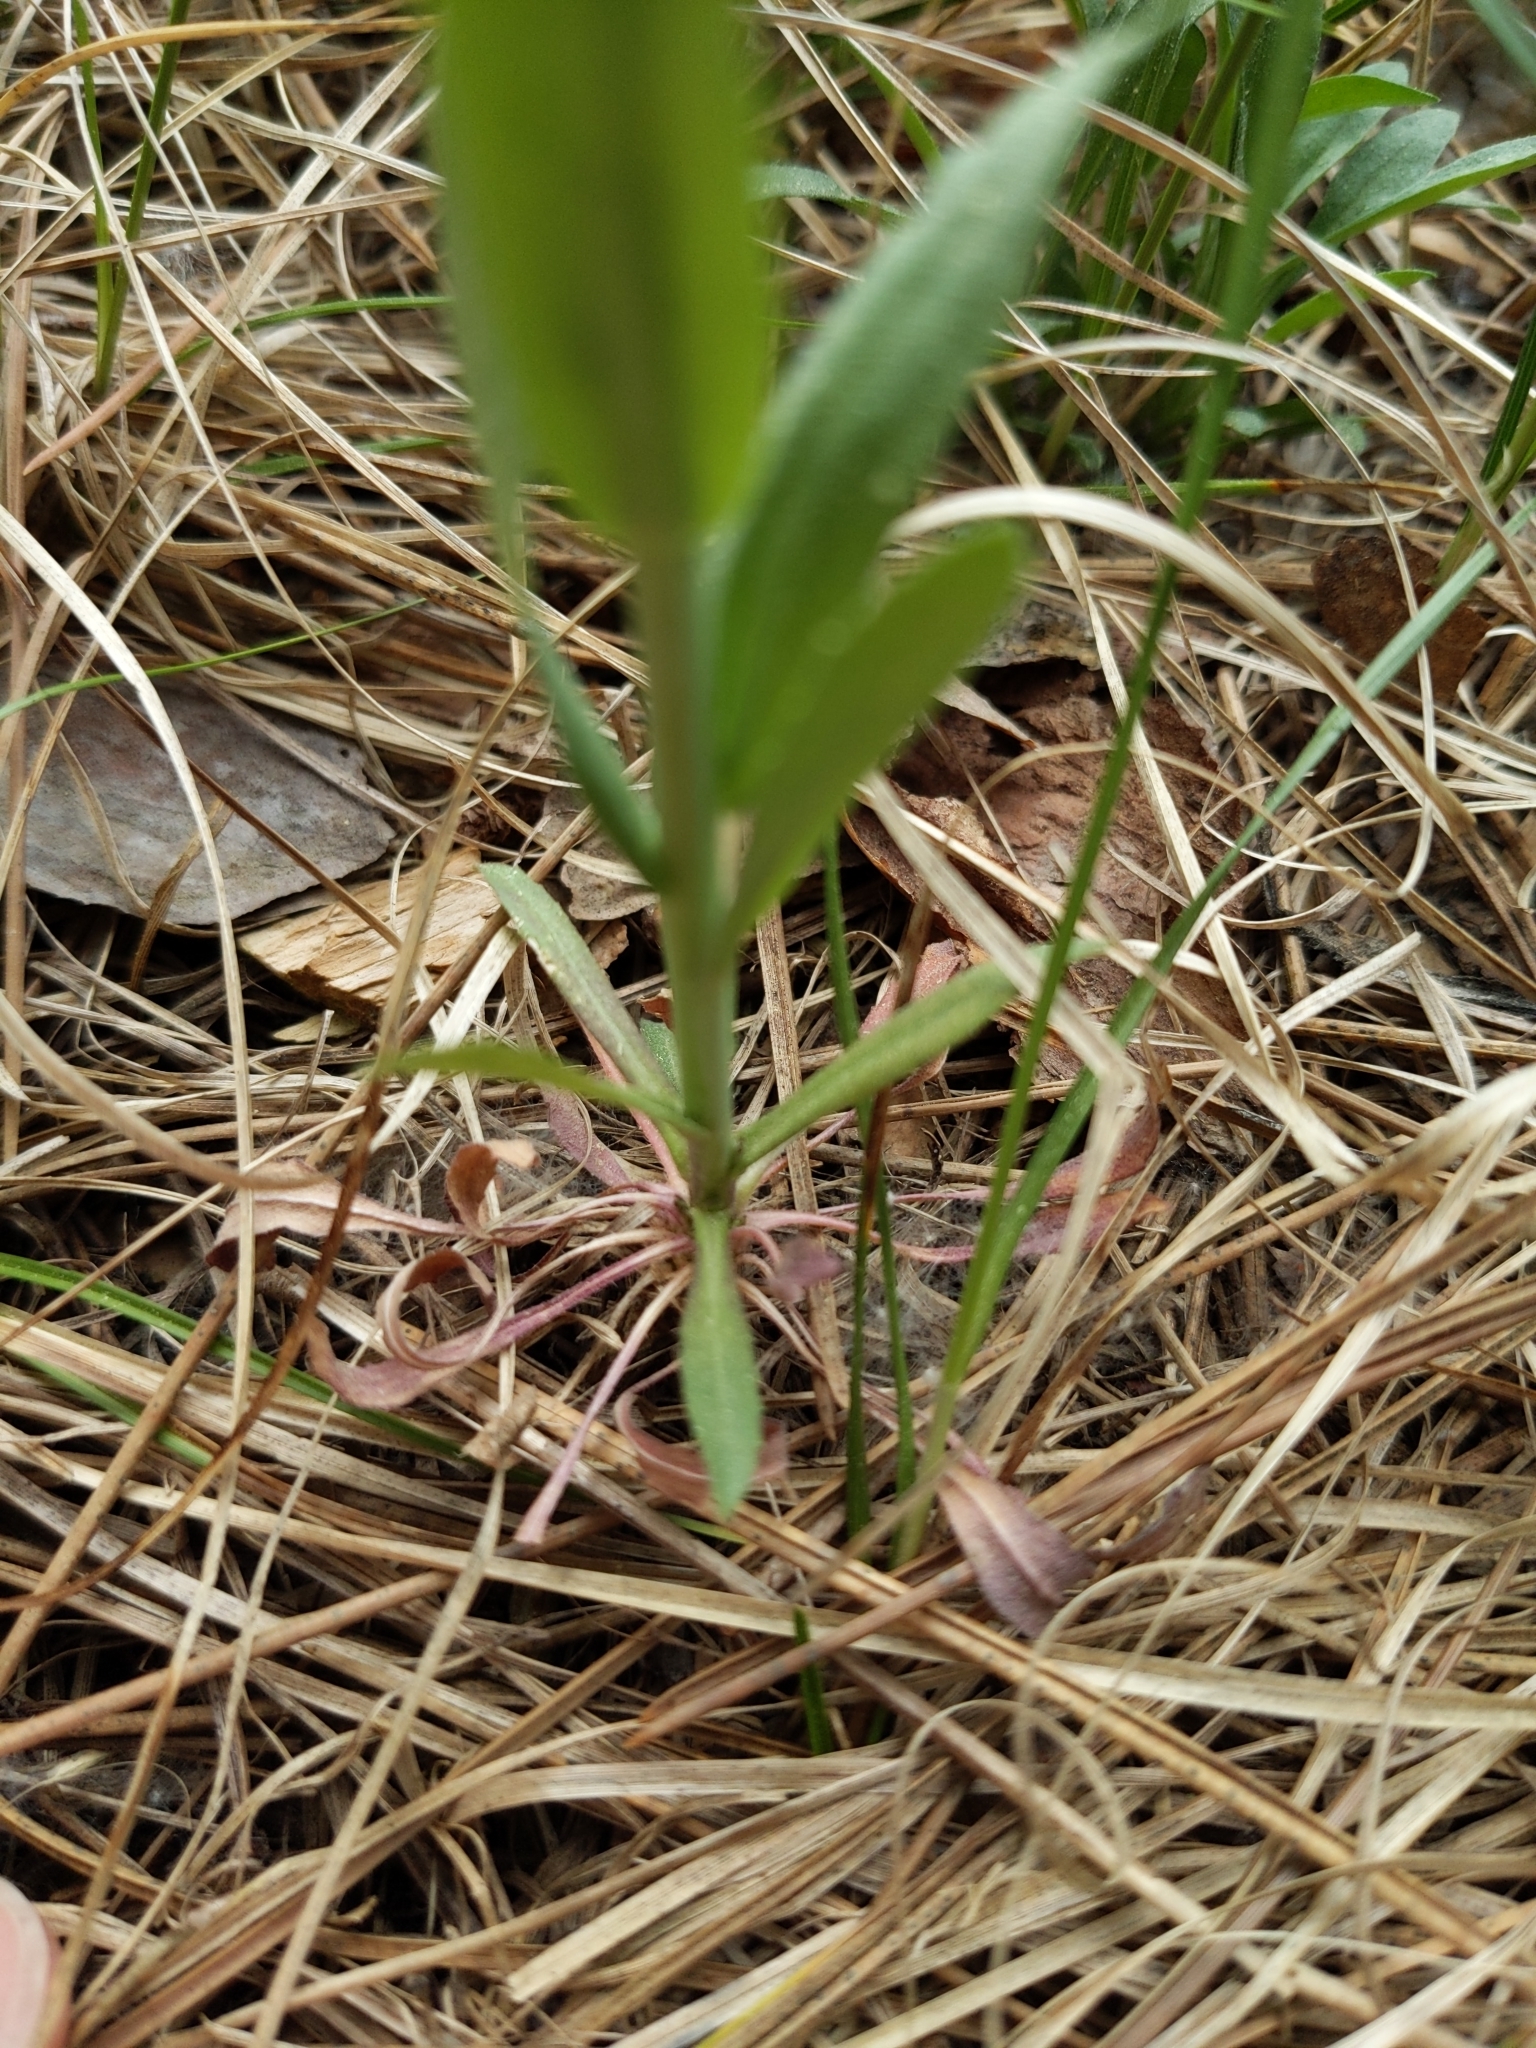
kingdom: Plantae
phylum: Tracheophyta
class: Magnoliopsida
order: Brassicales
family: Brassicaceae
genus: Boechera
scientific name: Boechera divaricarpa
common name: Divaricate rockcress
